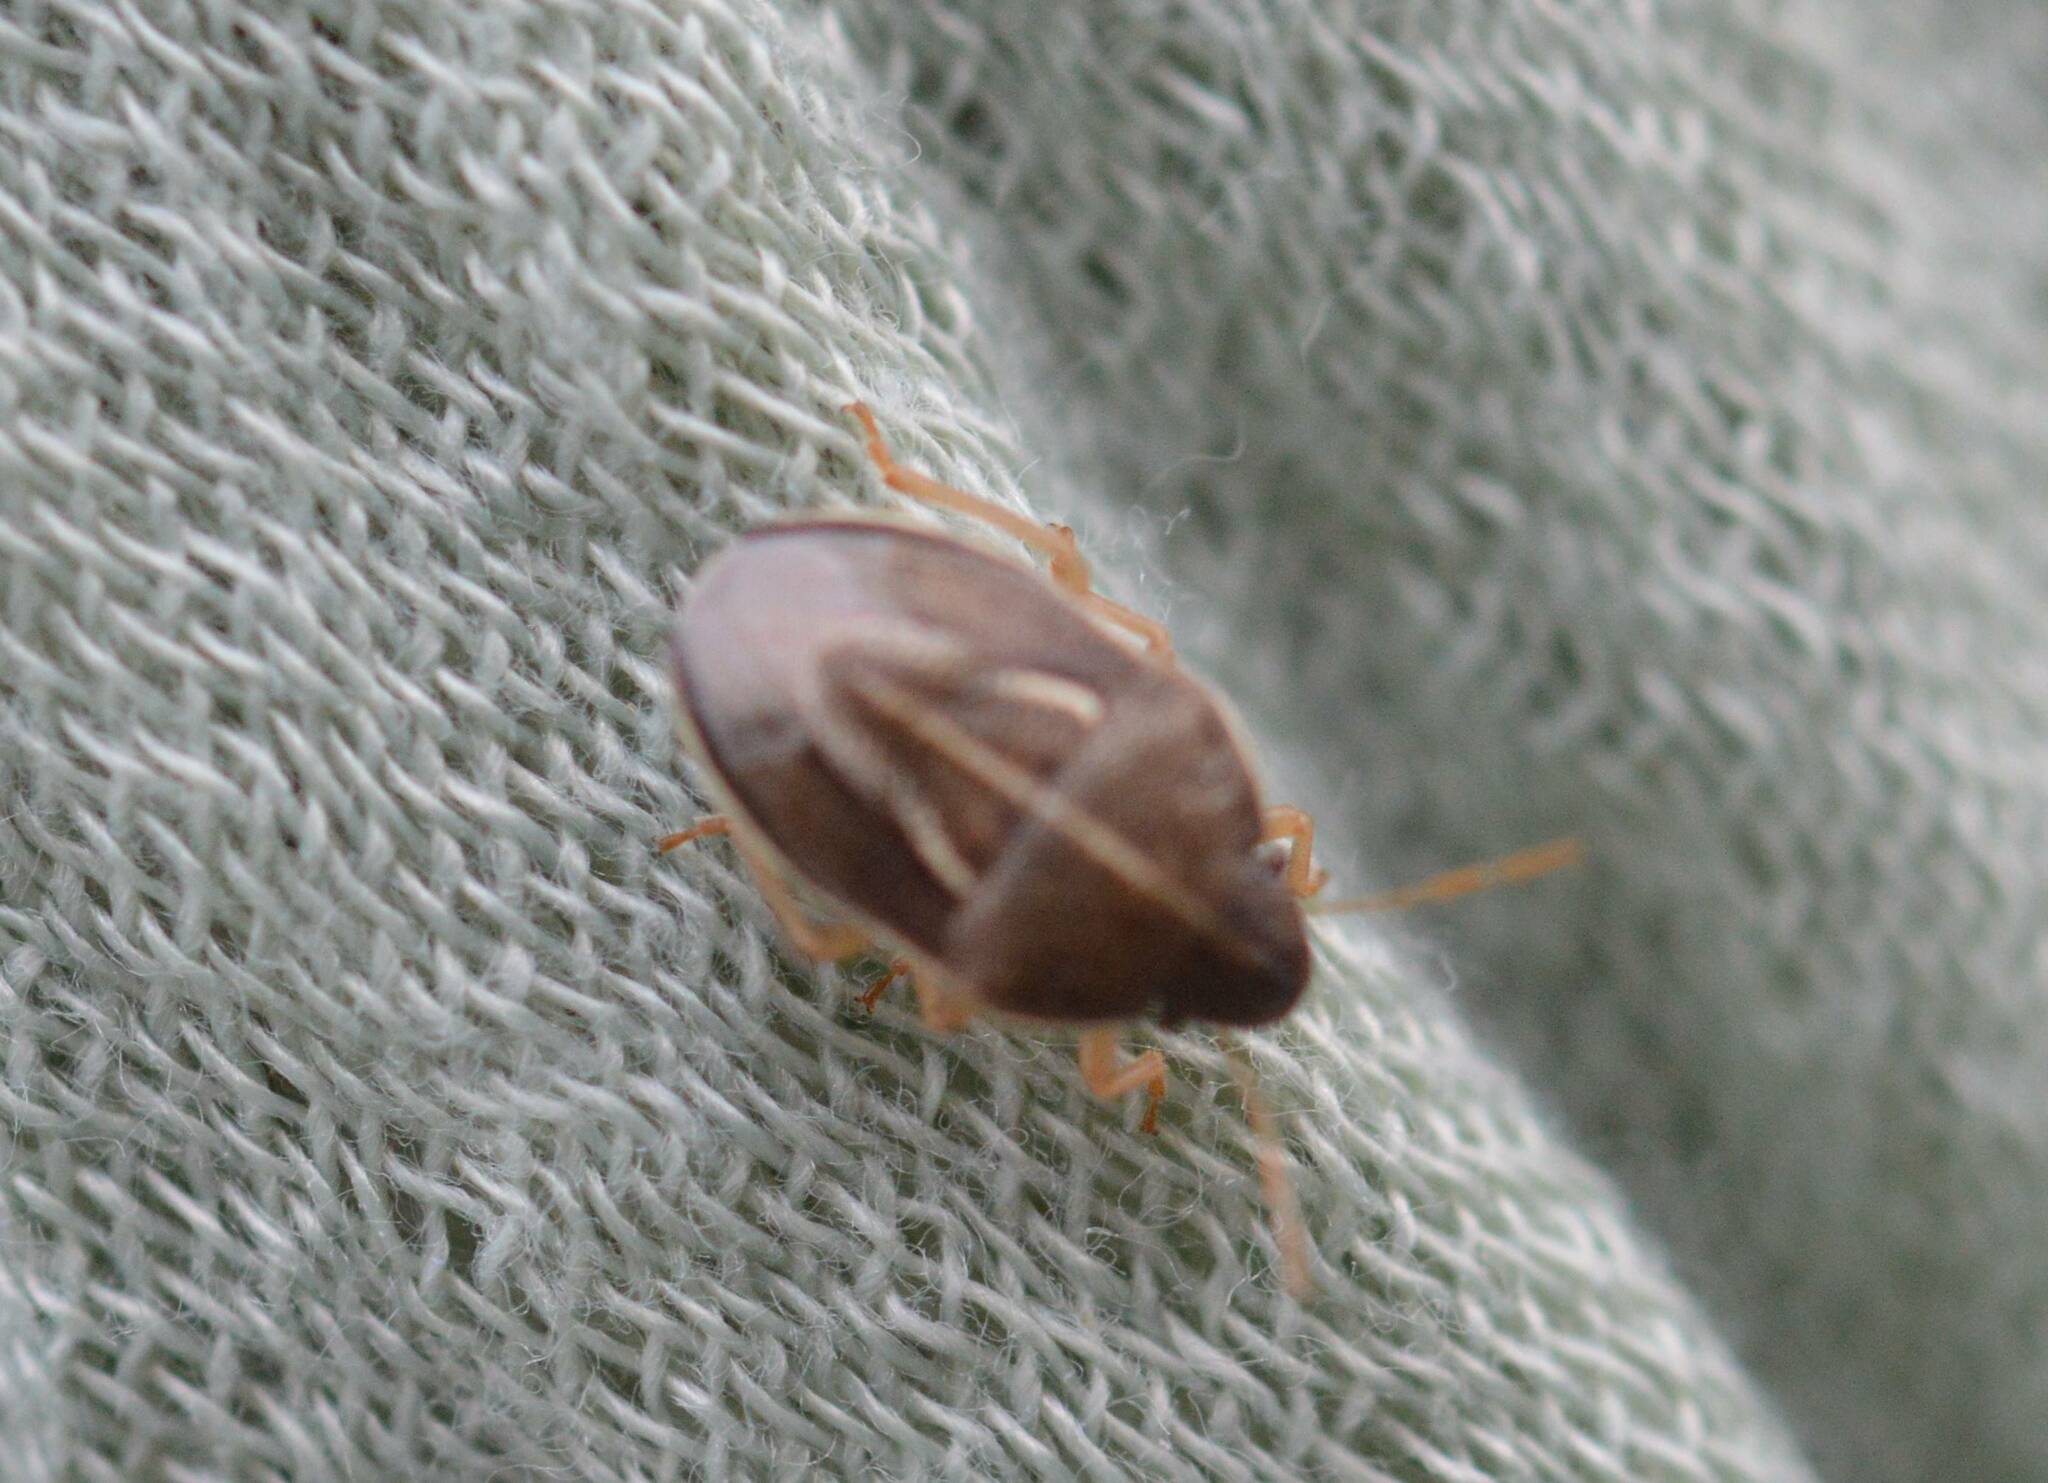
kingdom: Animalia
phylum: Arthropoda
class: Insecta
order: Hemiptera
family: Pentatomidae
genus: Neottiglossa
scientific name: Neottiglossa flavomarginata
